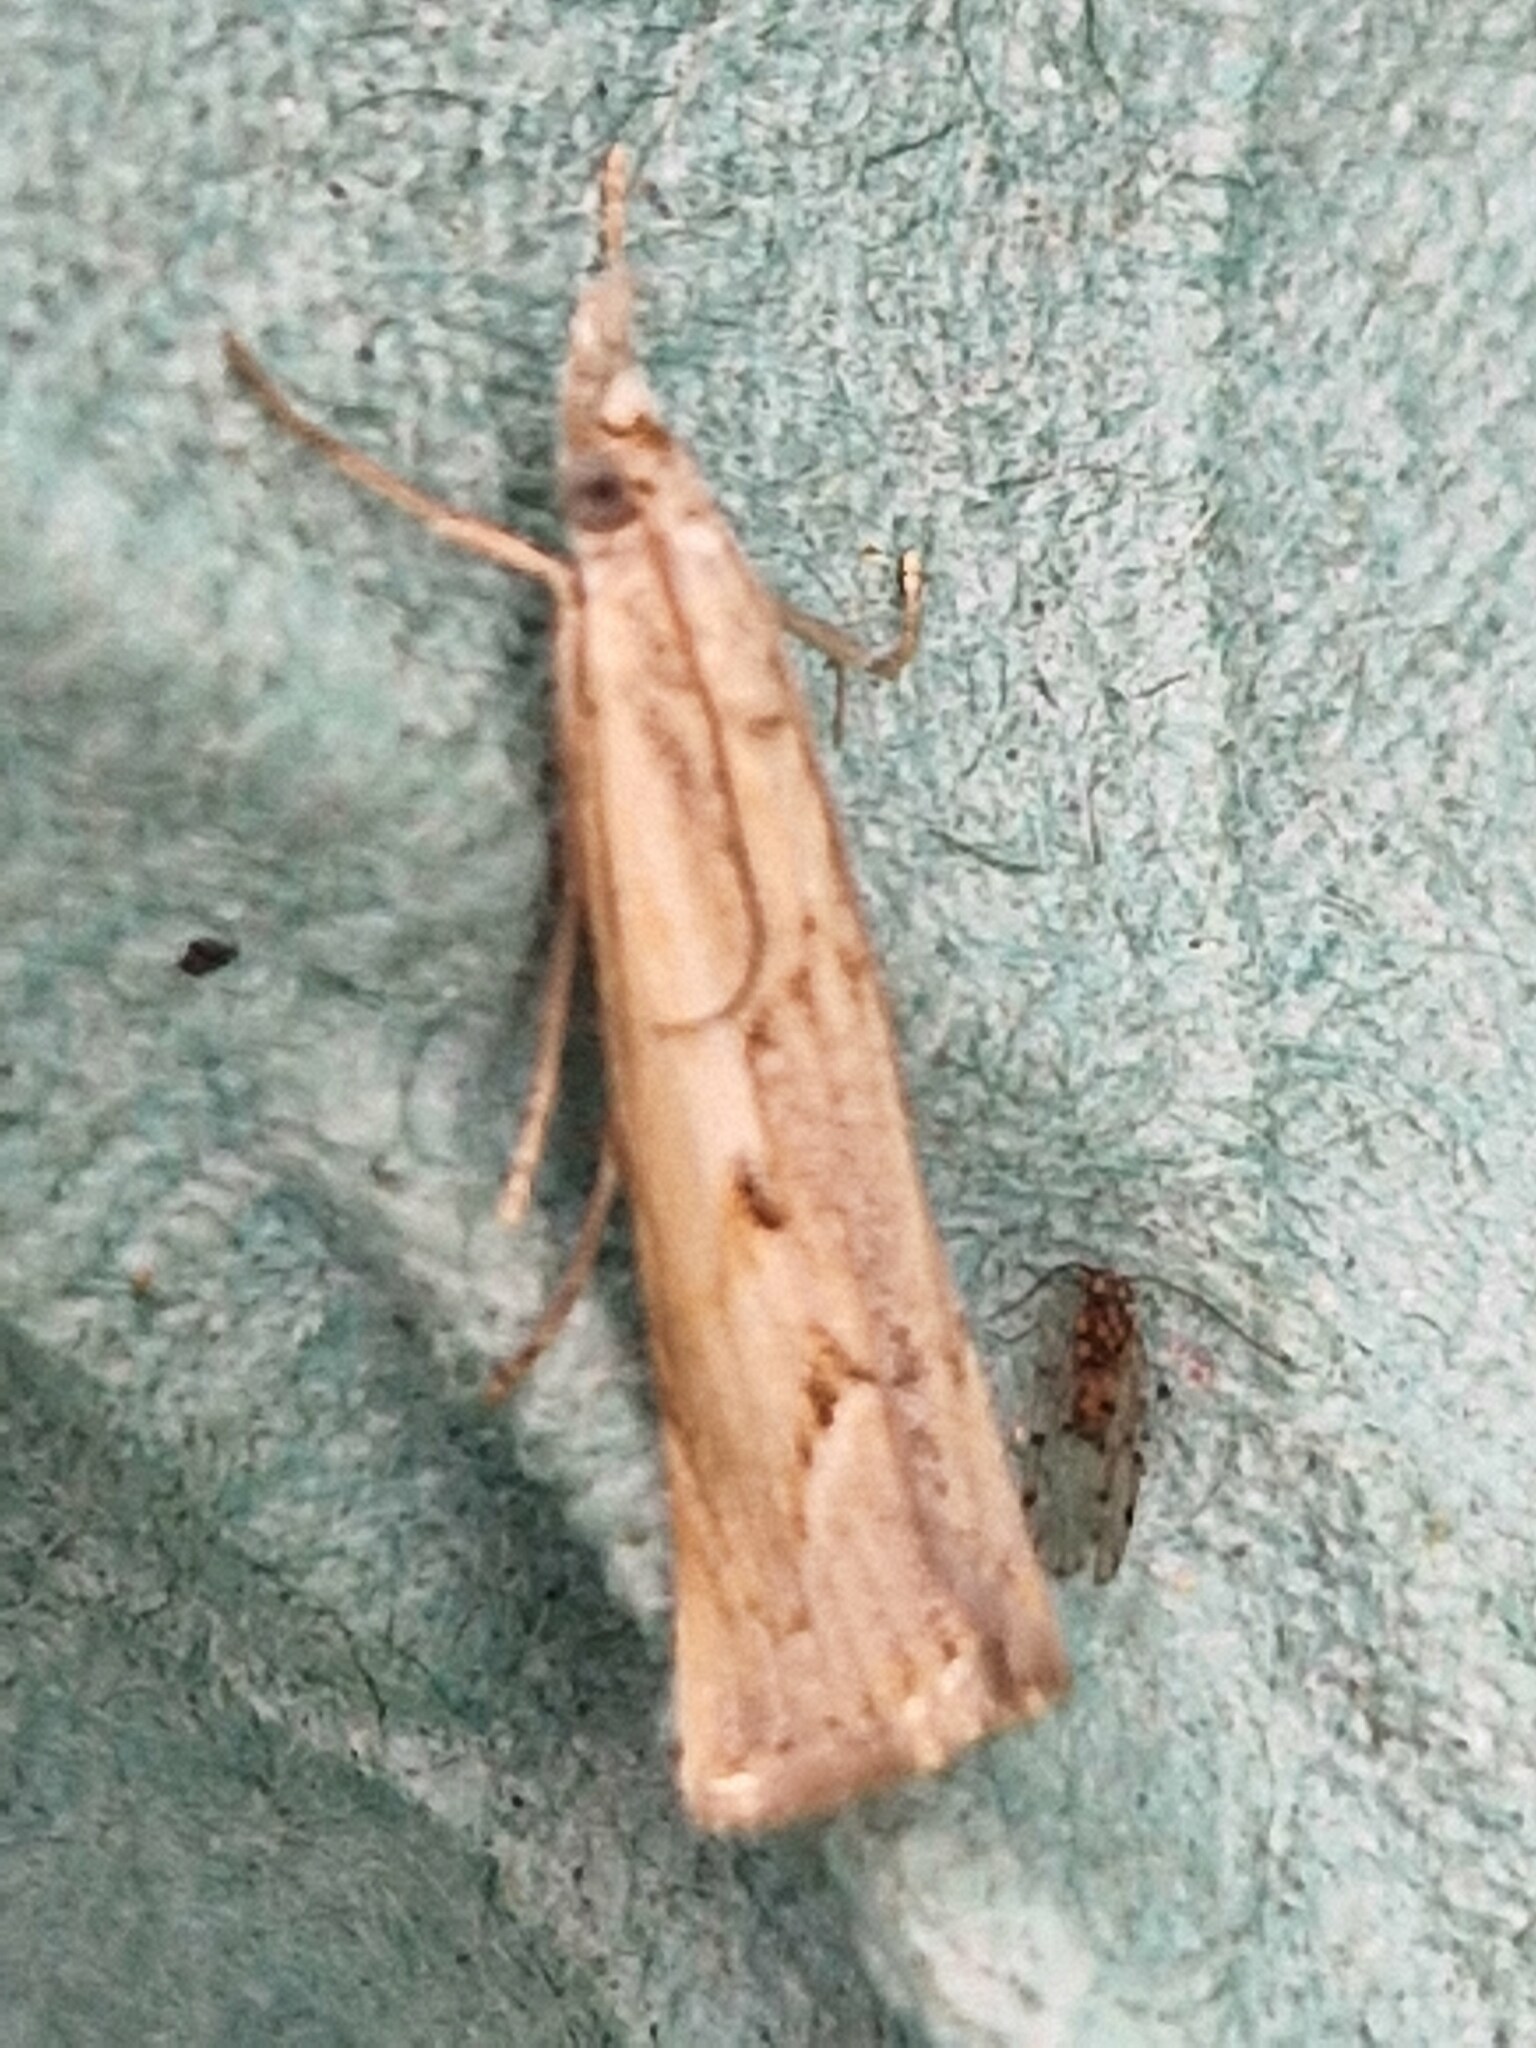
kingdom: Animalia
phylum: Arthropoda
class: Insecta
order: Lepidoptera
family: Crambidae
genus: Agriphila
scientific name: Agriphila geniculea
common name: Elbow-stripe grass-veneer
